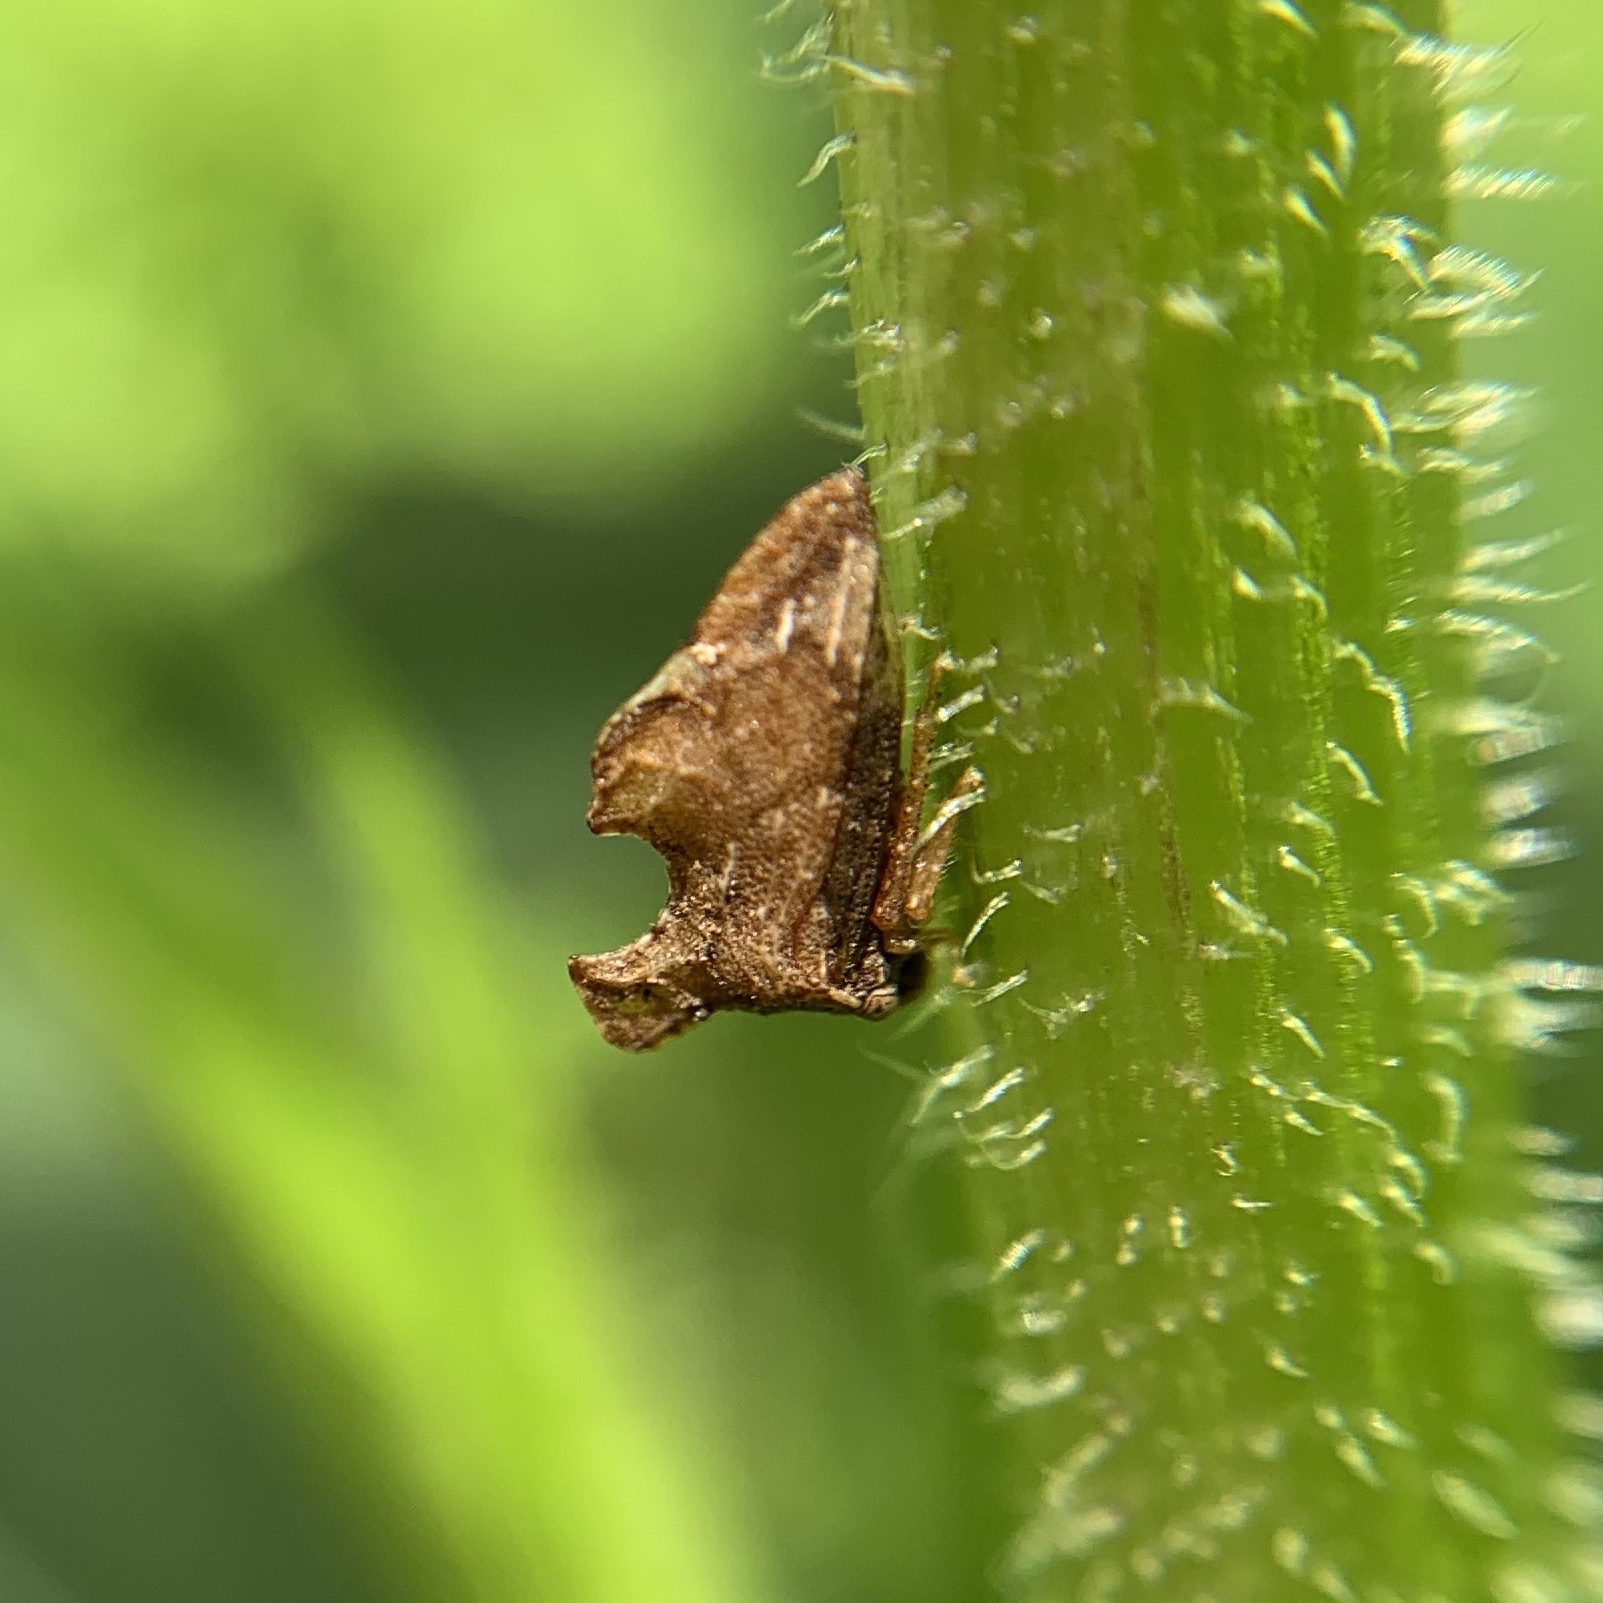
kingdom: Animalia
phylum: Arthropoda
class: Insecta
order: Hemiptera
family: Membracidae
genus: Entylia
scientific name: Entylia carinata
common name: Keeled treehopper
